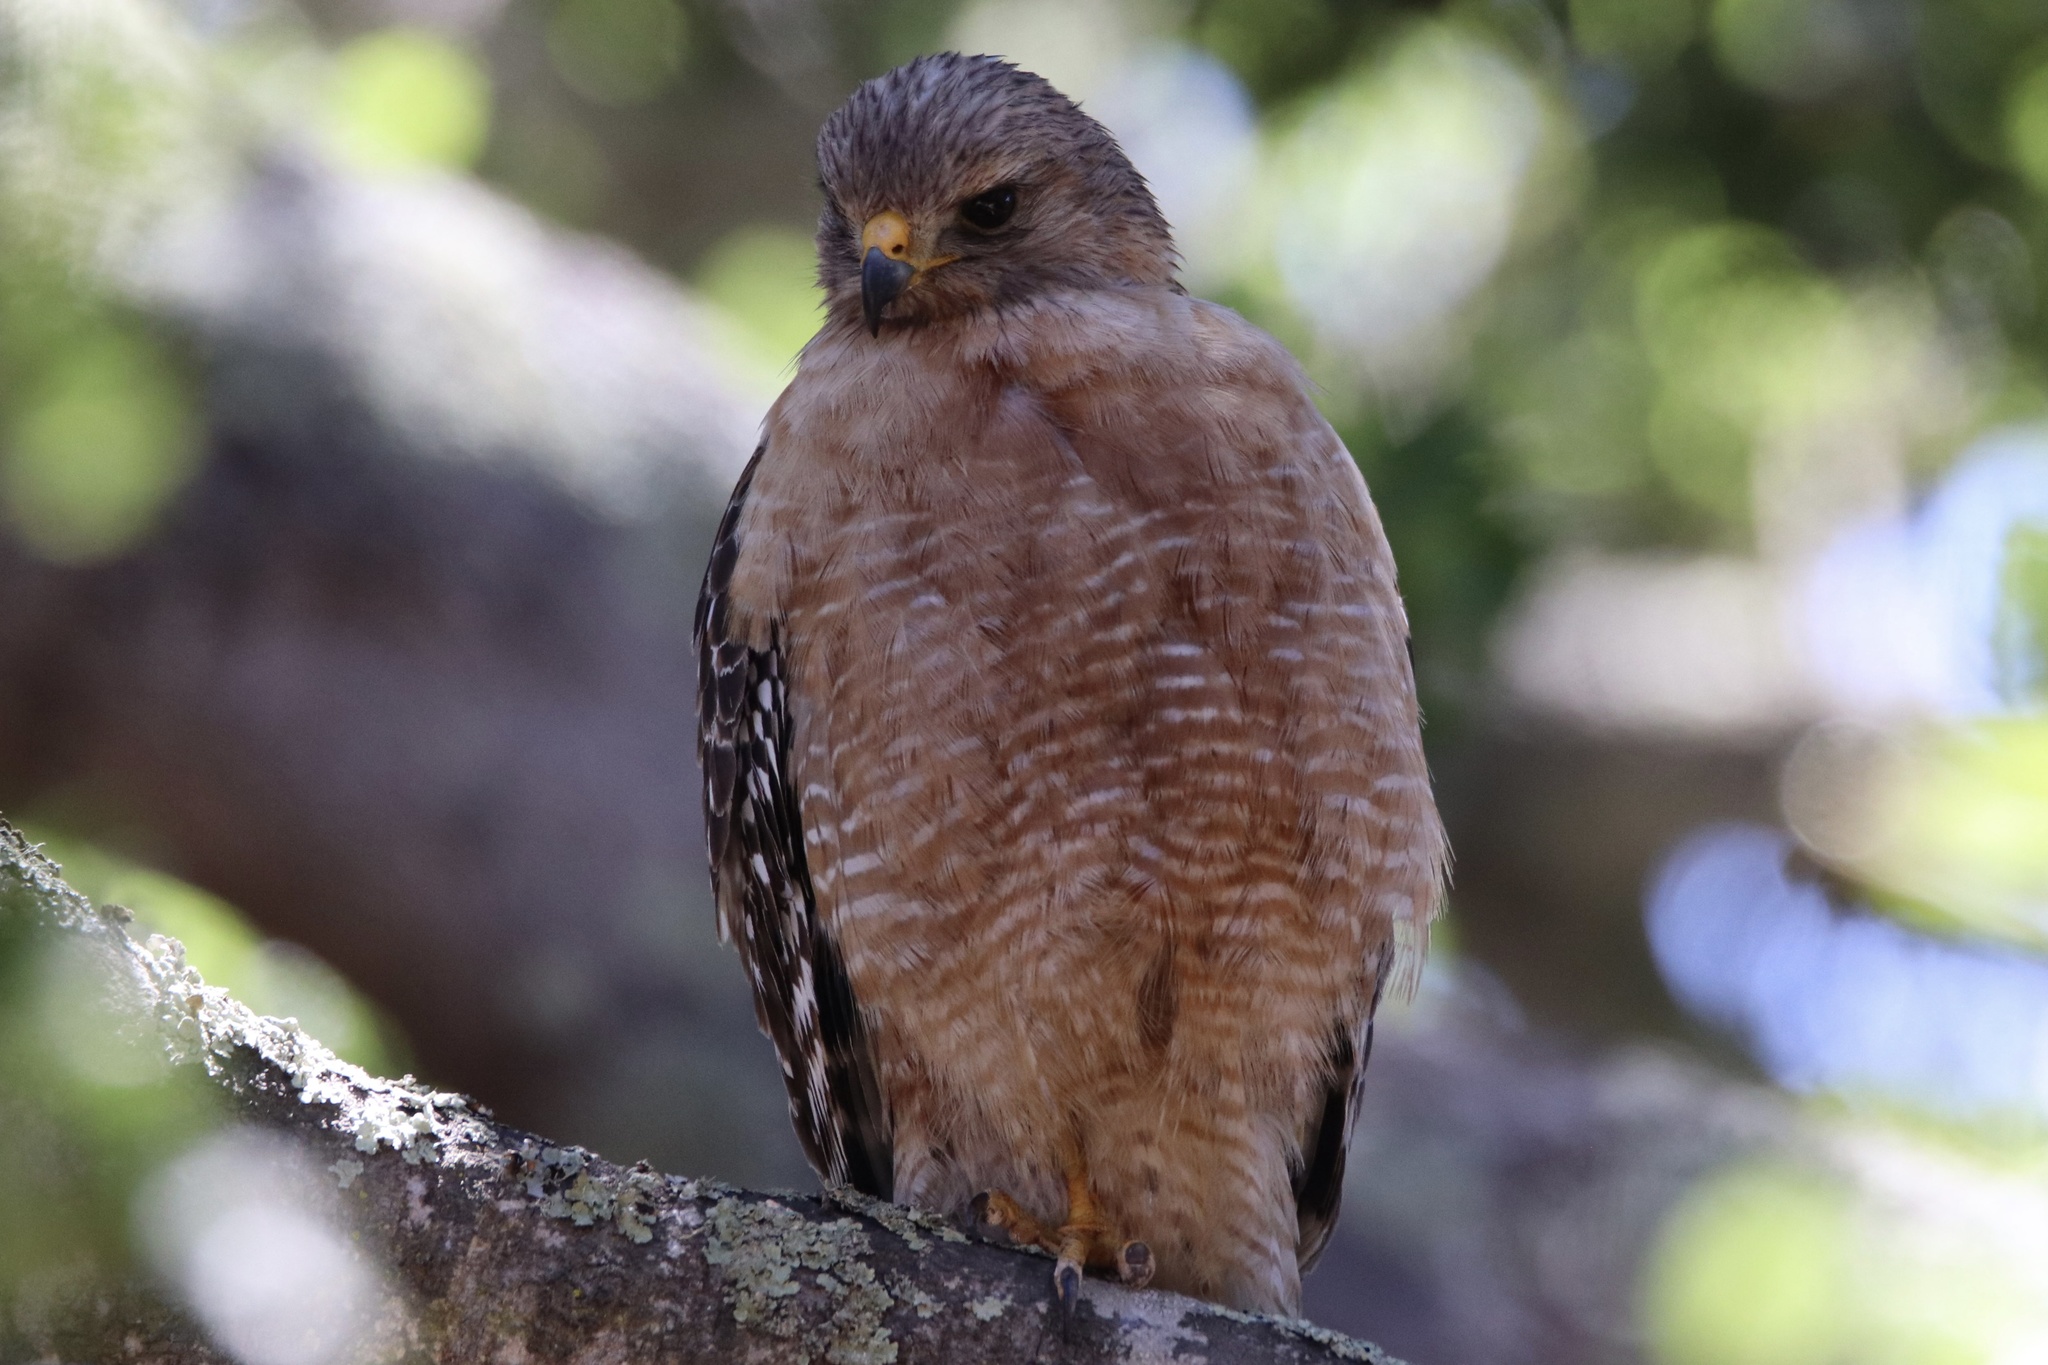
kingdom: Animalia
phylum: Chordata
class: Aves
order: Accipitriformes
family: Accipitridae
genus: Buteo
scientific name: Buteo lineatus
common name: Red-shouldered hawk
